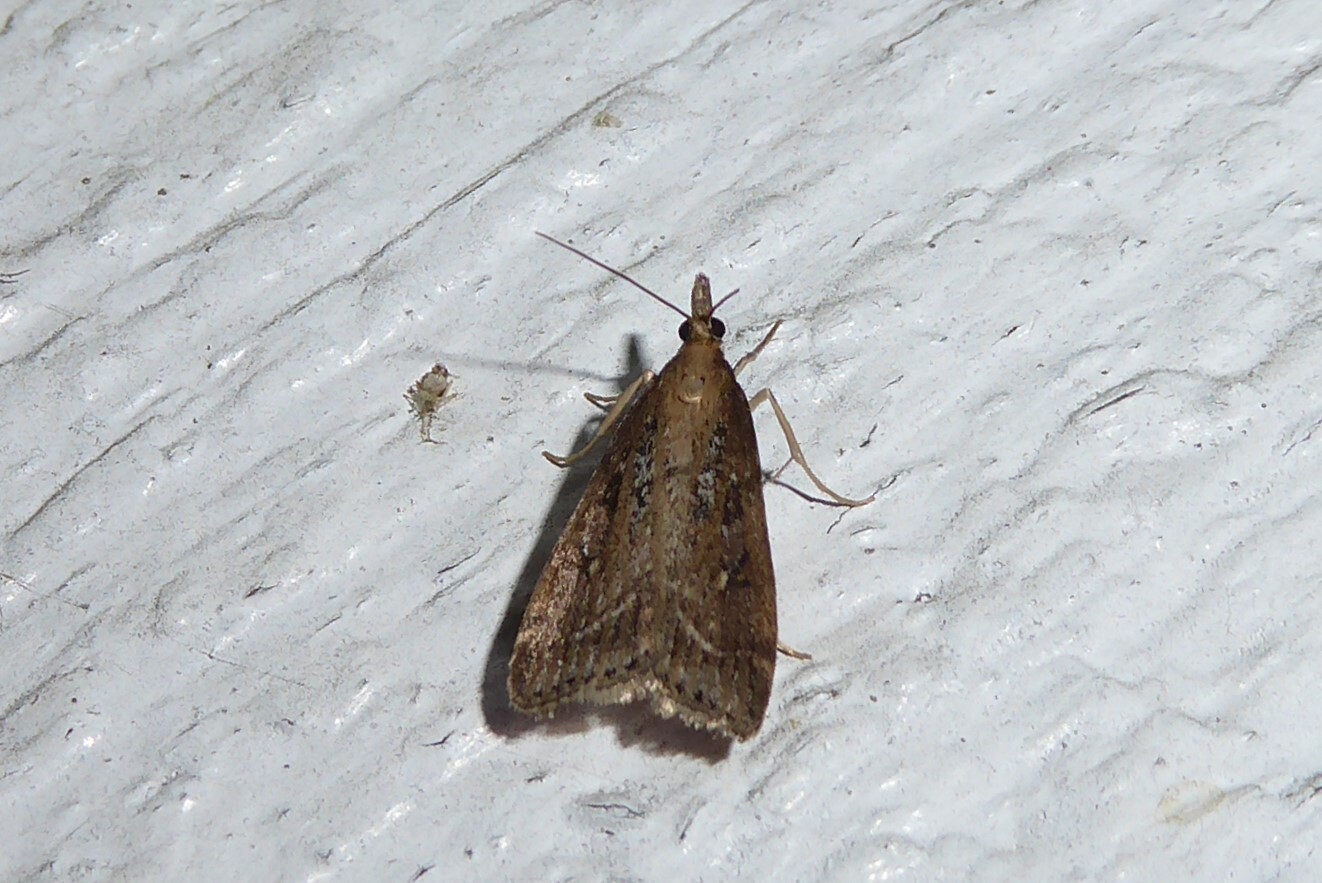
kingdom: Animalia
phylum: Arthropoda
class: Insecta
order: Lepidoptera
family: Crambidae
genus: Eudonia
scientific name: Eudonia octophora
